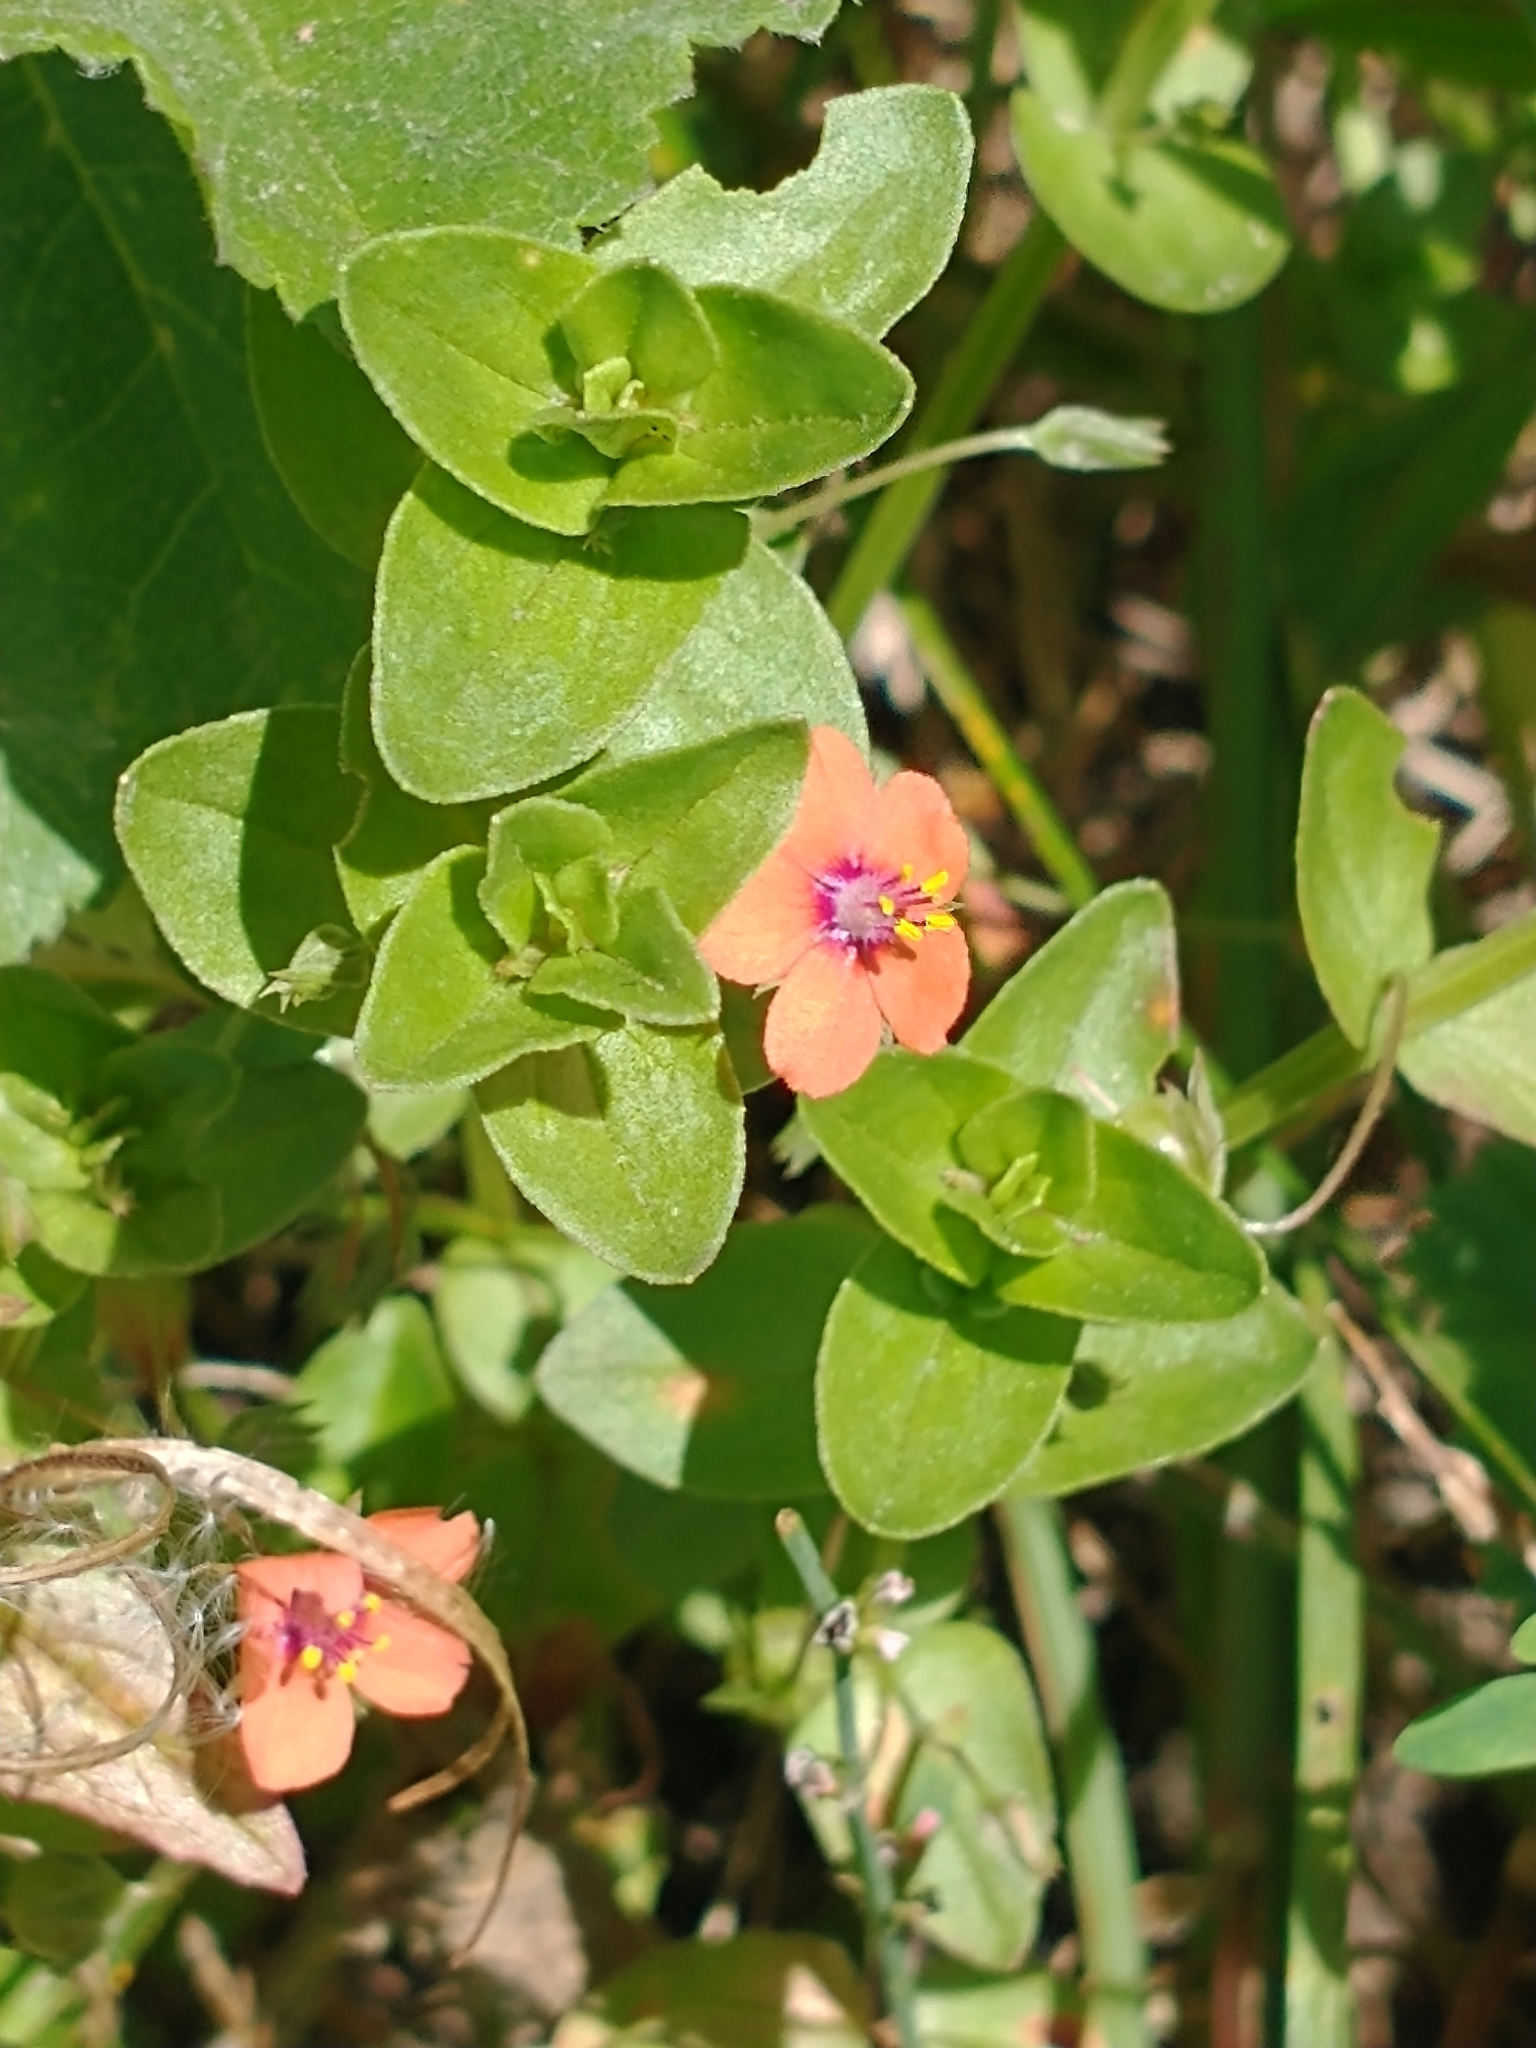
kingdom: Plantae
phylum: Tracheophyta
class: Magnoliopsida
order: Ericales
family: Primulaceae
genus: Lysimachia
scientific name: Lysimachia arvensis
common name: Scarlet pimpernel
